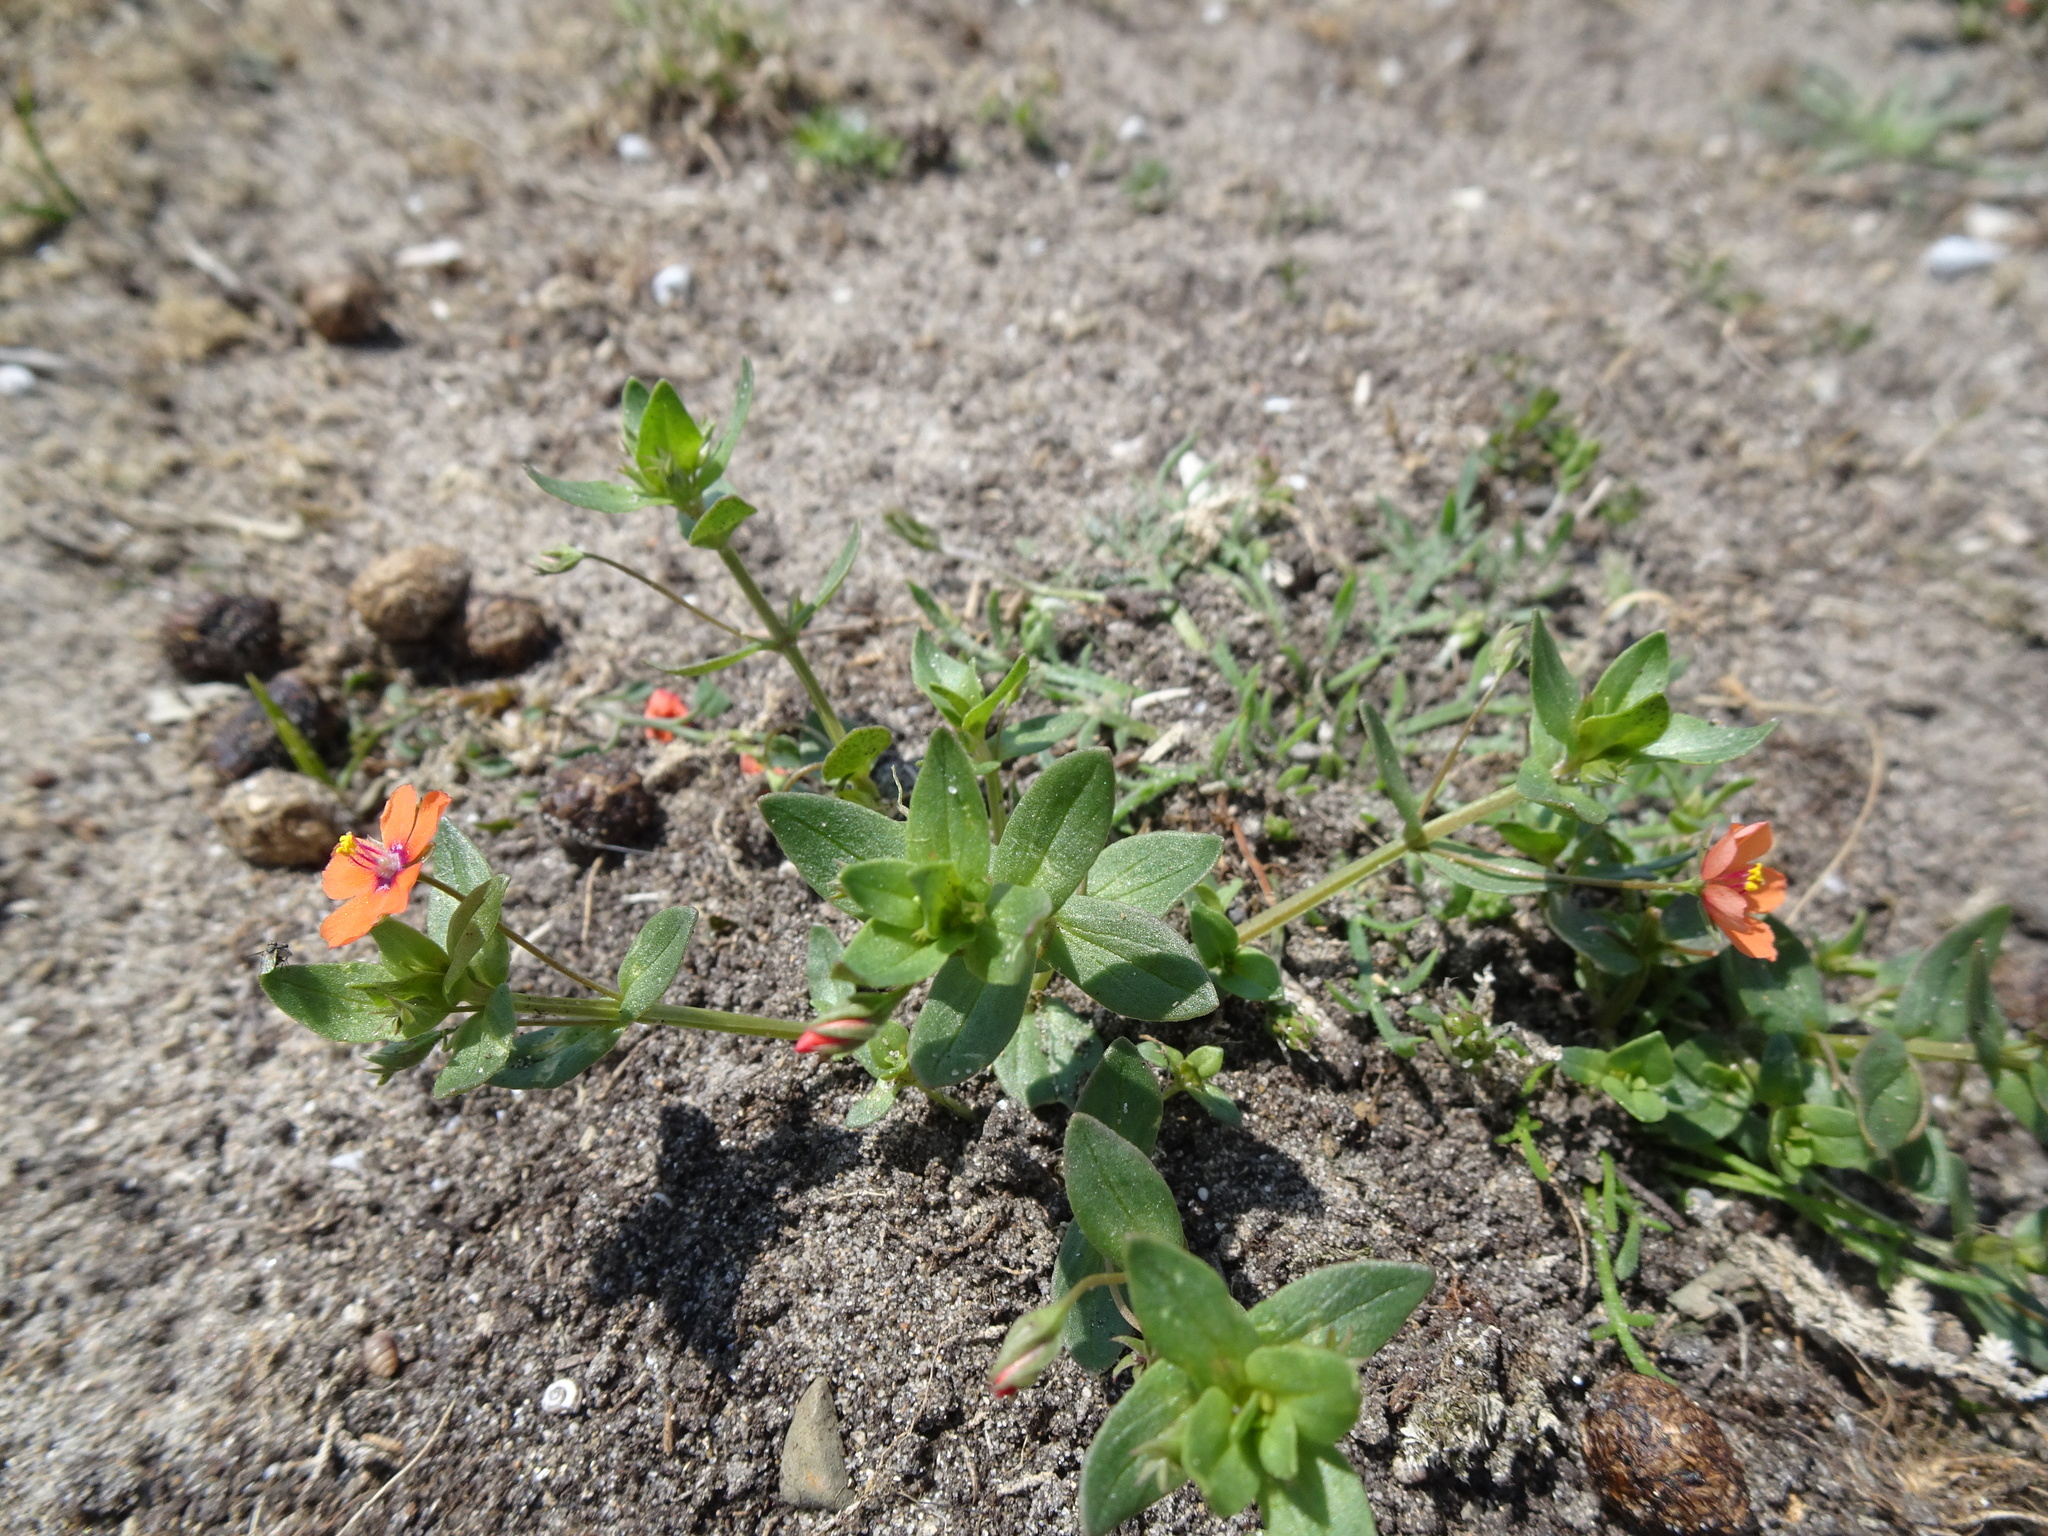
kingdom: Plantae
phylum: Tracheophyta
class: Magnoliopsida
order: Ericales
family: Primulaceae
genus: Lysimachia
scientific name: Lysimachia arvensis
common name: Scarlet pimpernel
